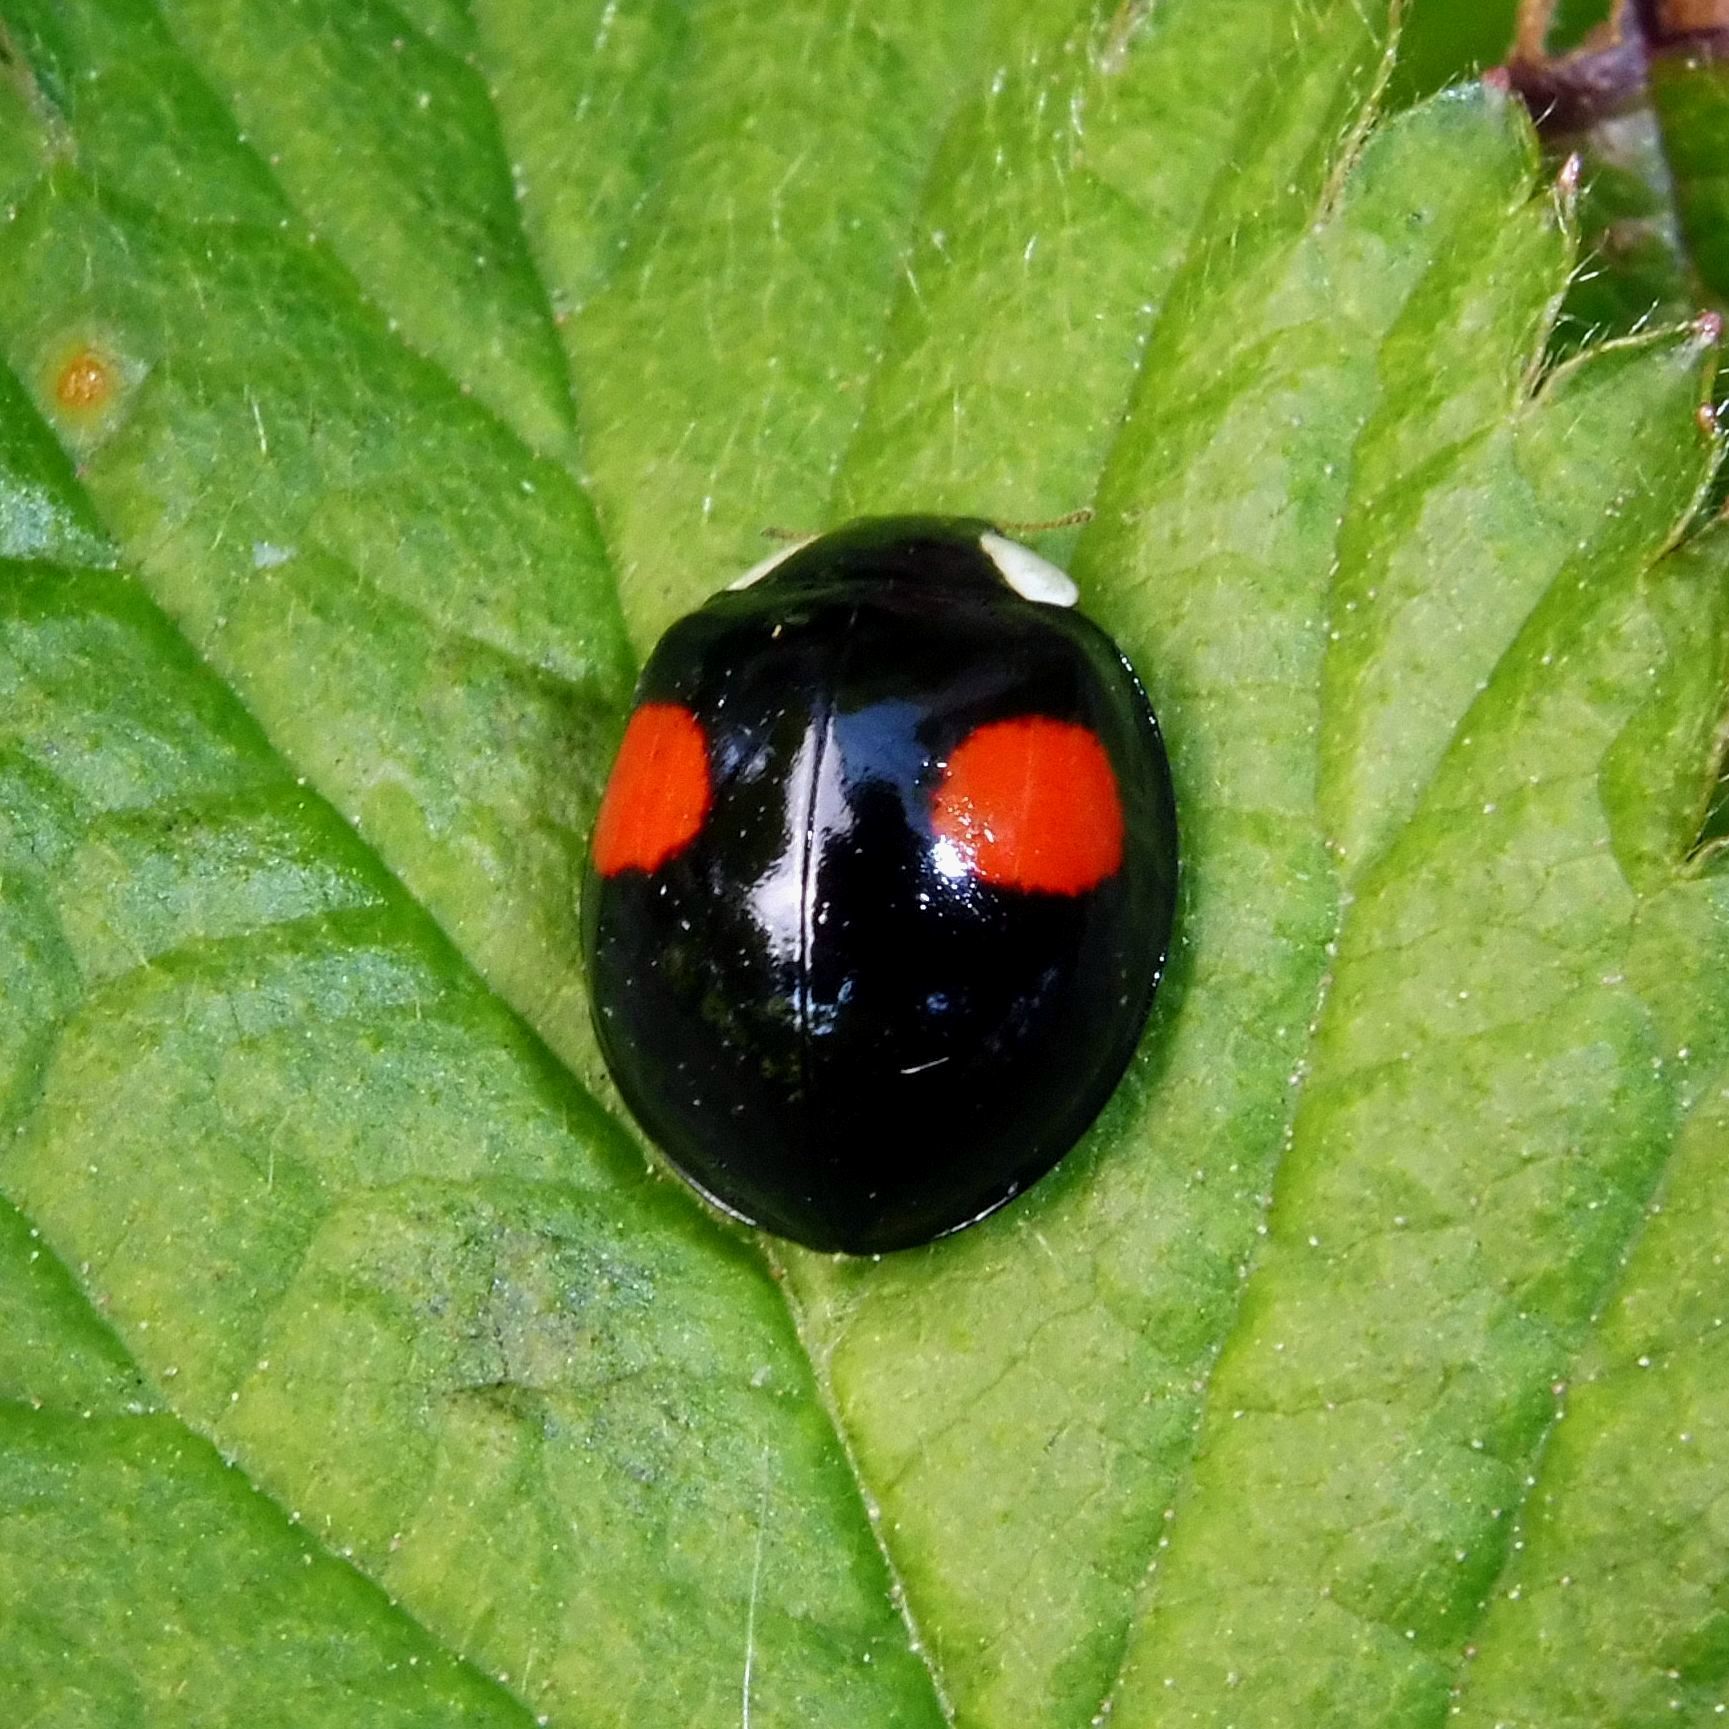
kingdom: Animalia
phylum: Arthropoda
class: Insecta
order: Coleoptera
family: Coccinellidae
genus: Harmonia
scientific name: Harmonia axyridis
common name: Harlequin ladybird
